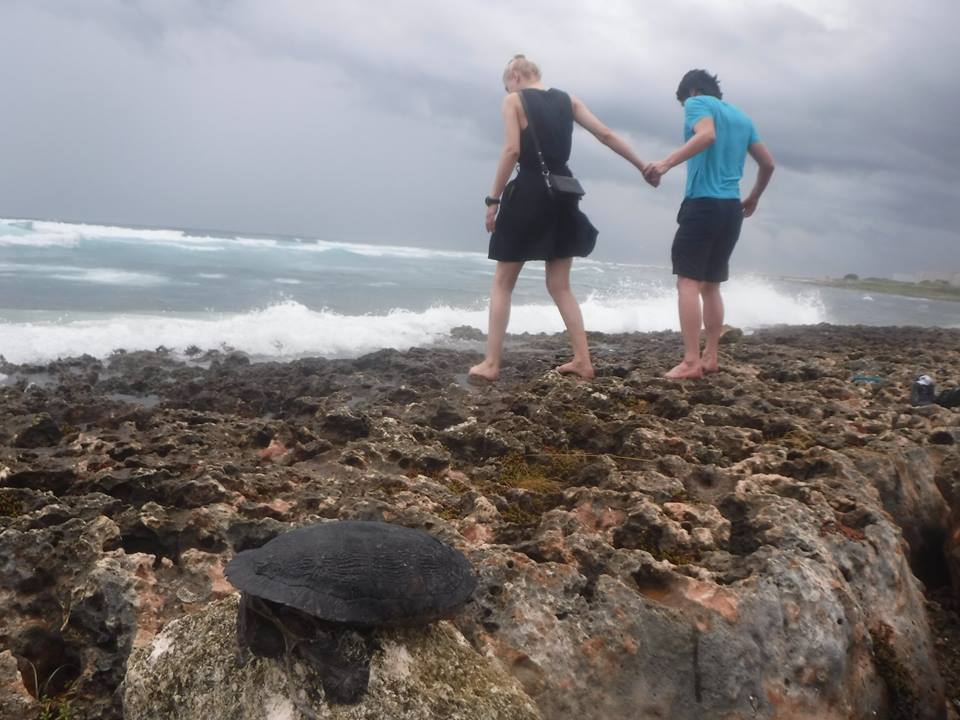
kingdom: Animalia
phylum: Chordata
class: Testudines
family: Emydidae
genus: Trachemys
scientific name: Trachemys decussata
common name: North antillean slider
